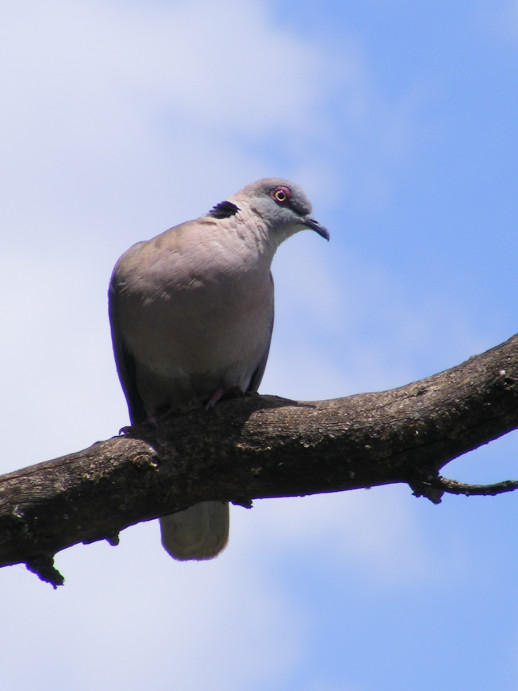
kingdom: Animalia
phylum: Chordata
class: Aves
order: Columbiformes
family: Columbidae
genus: Streptopelia
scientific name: Streptopelia decipiens
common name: Mourning collared dove
